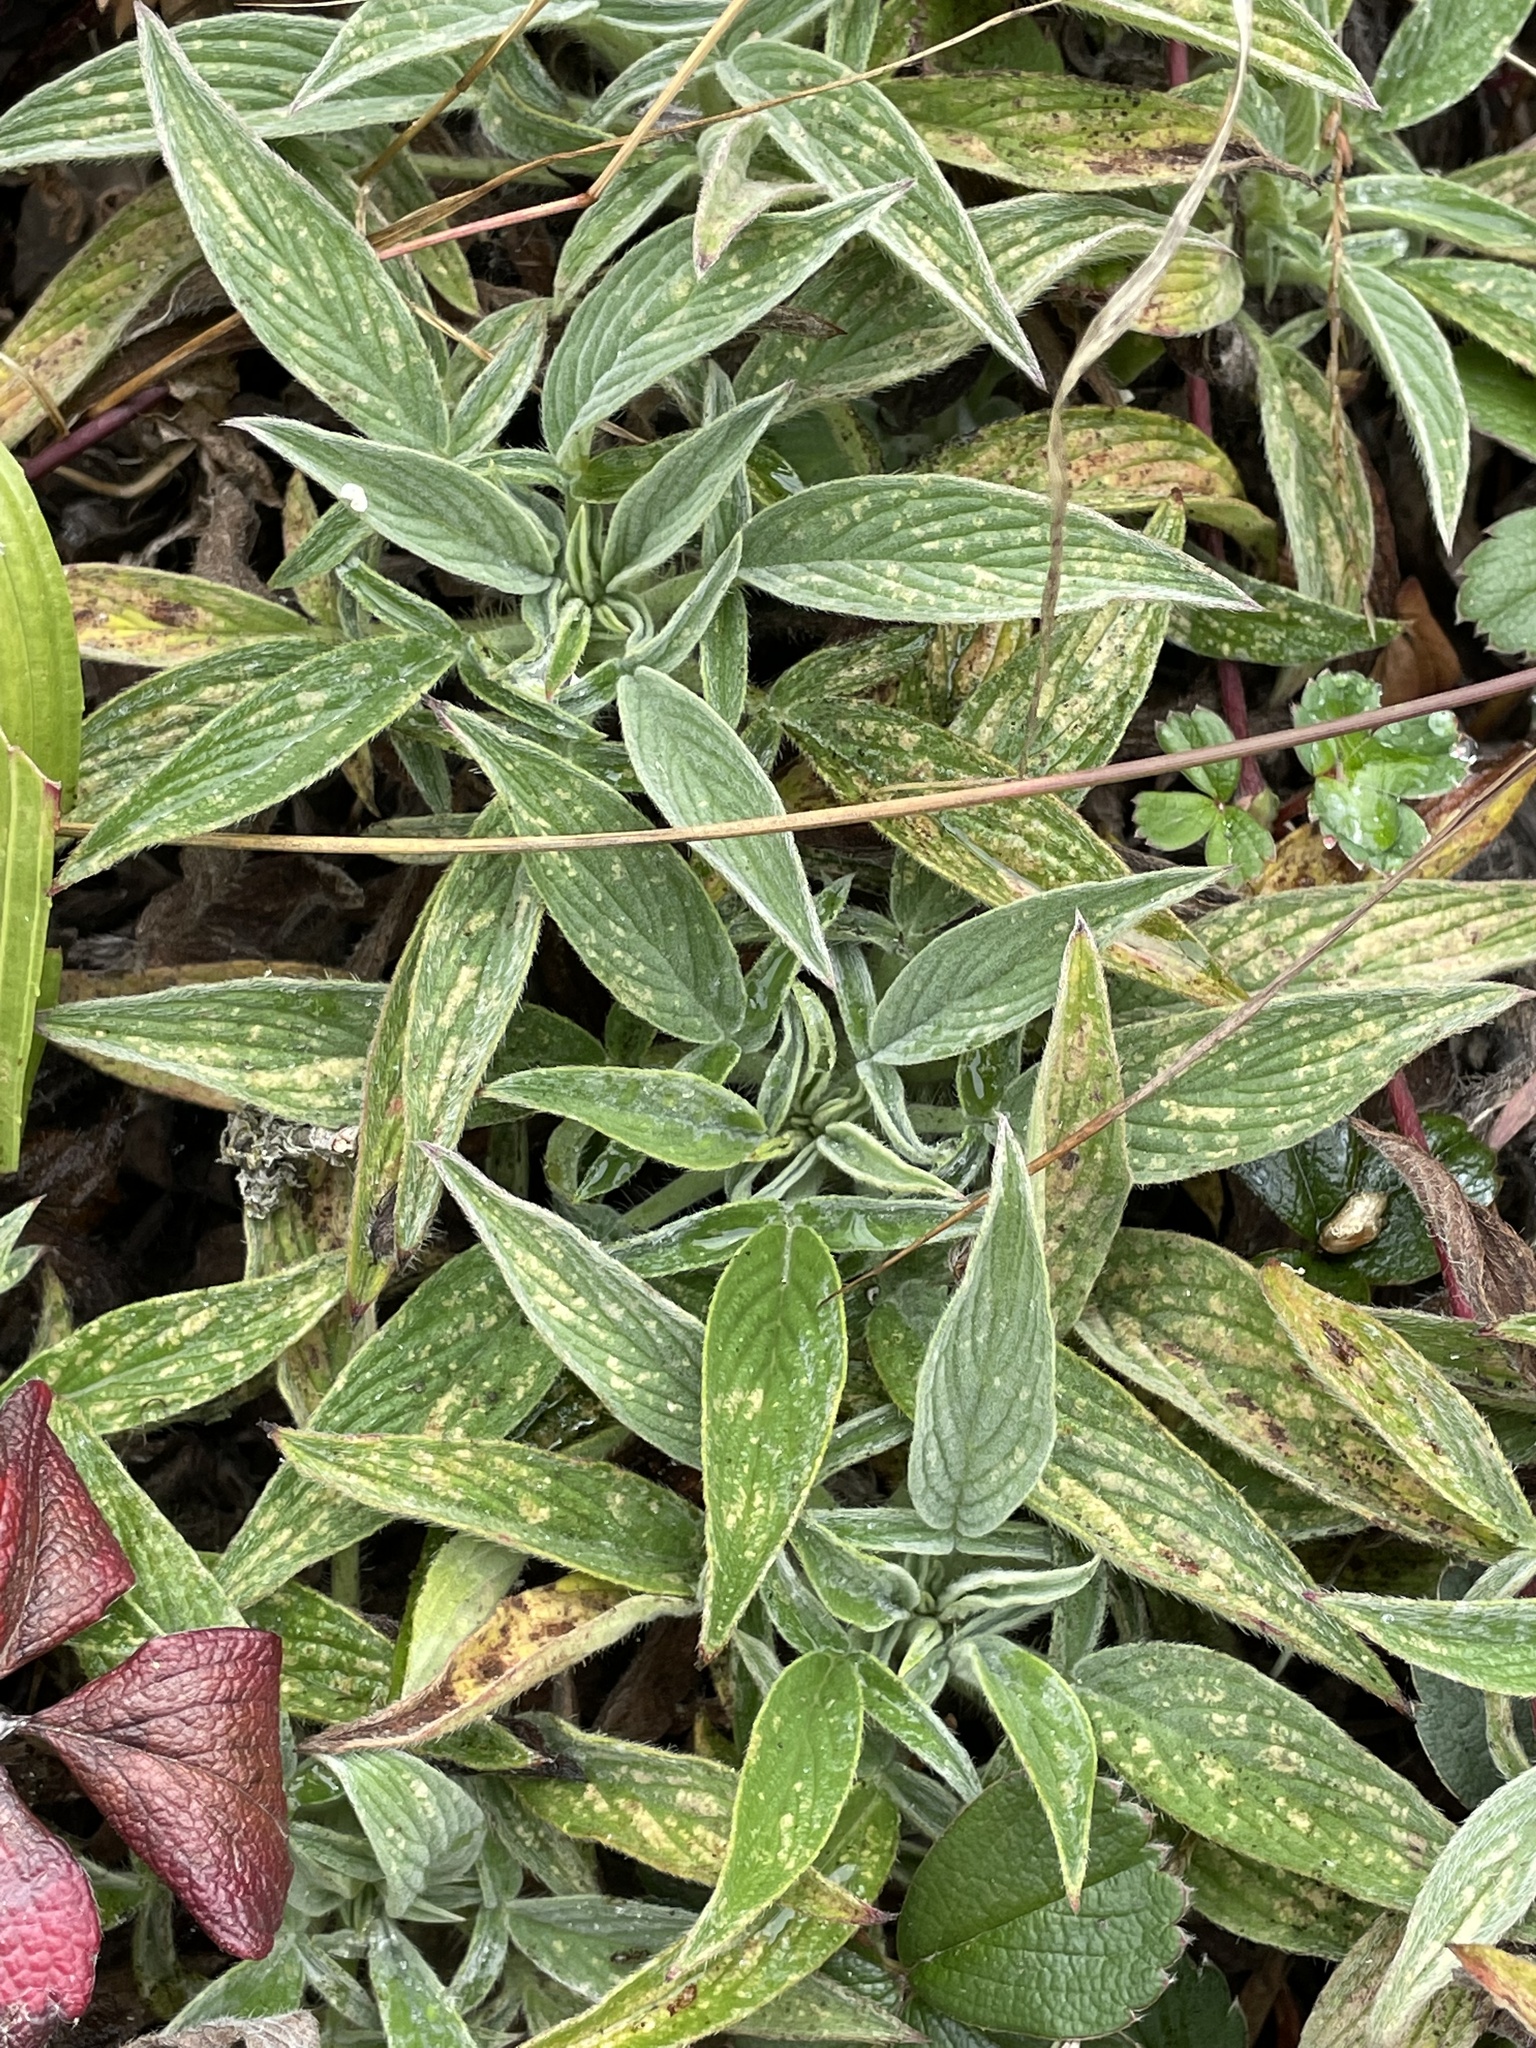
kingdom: Plantae
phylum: Tracheophyta
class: Magnoliopsida
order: Boraginales
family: Hydrophyllaceae
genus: Phacelia
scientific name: Phacelia californica
